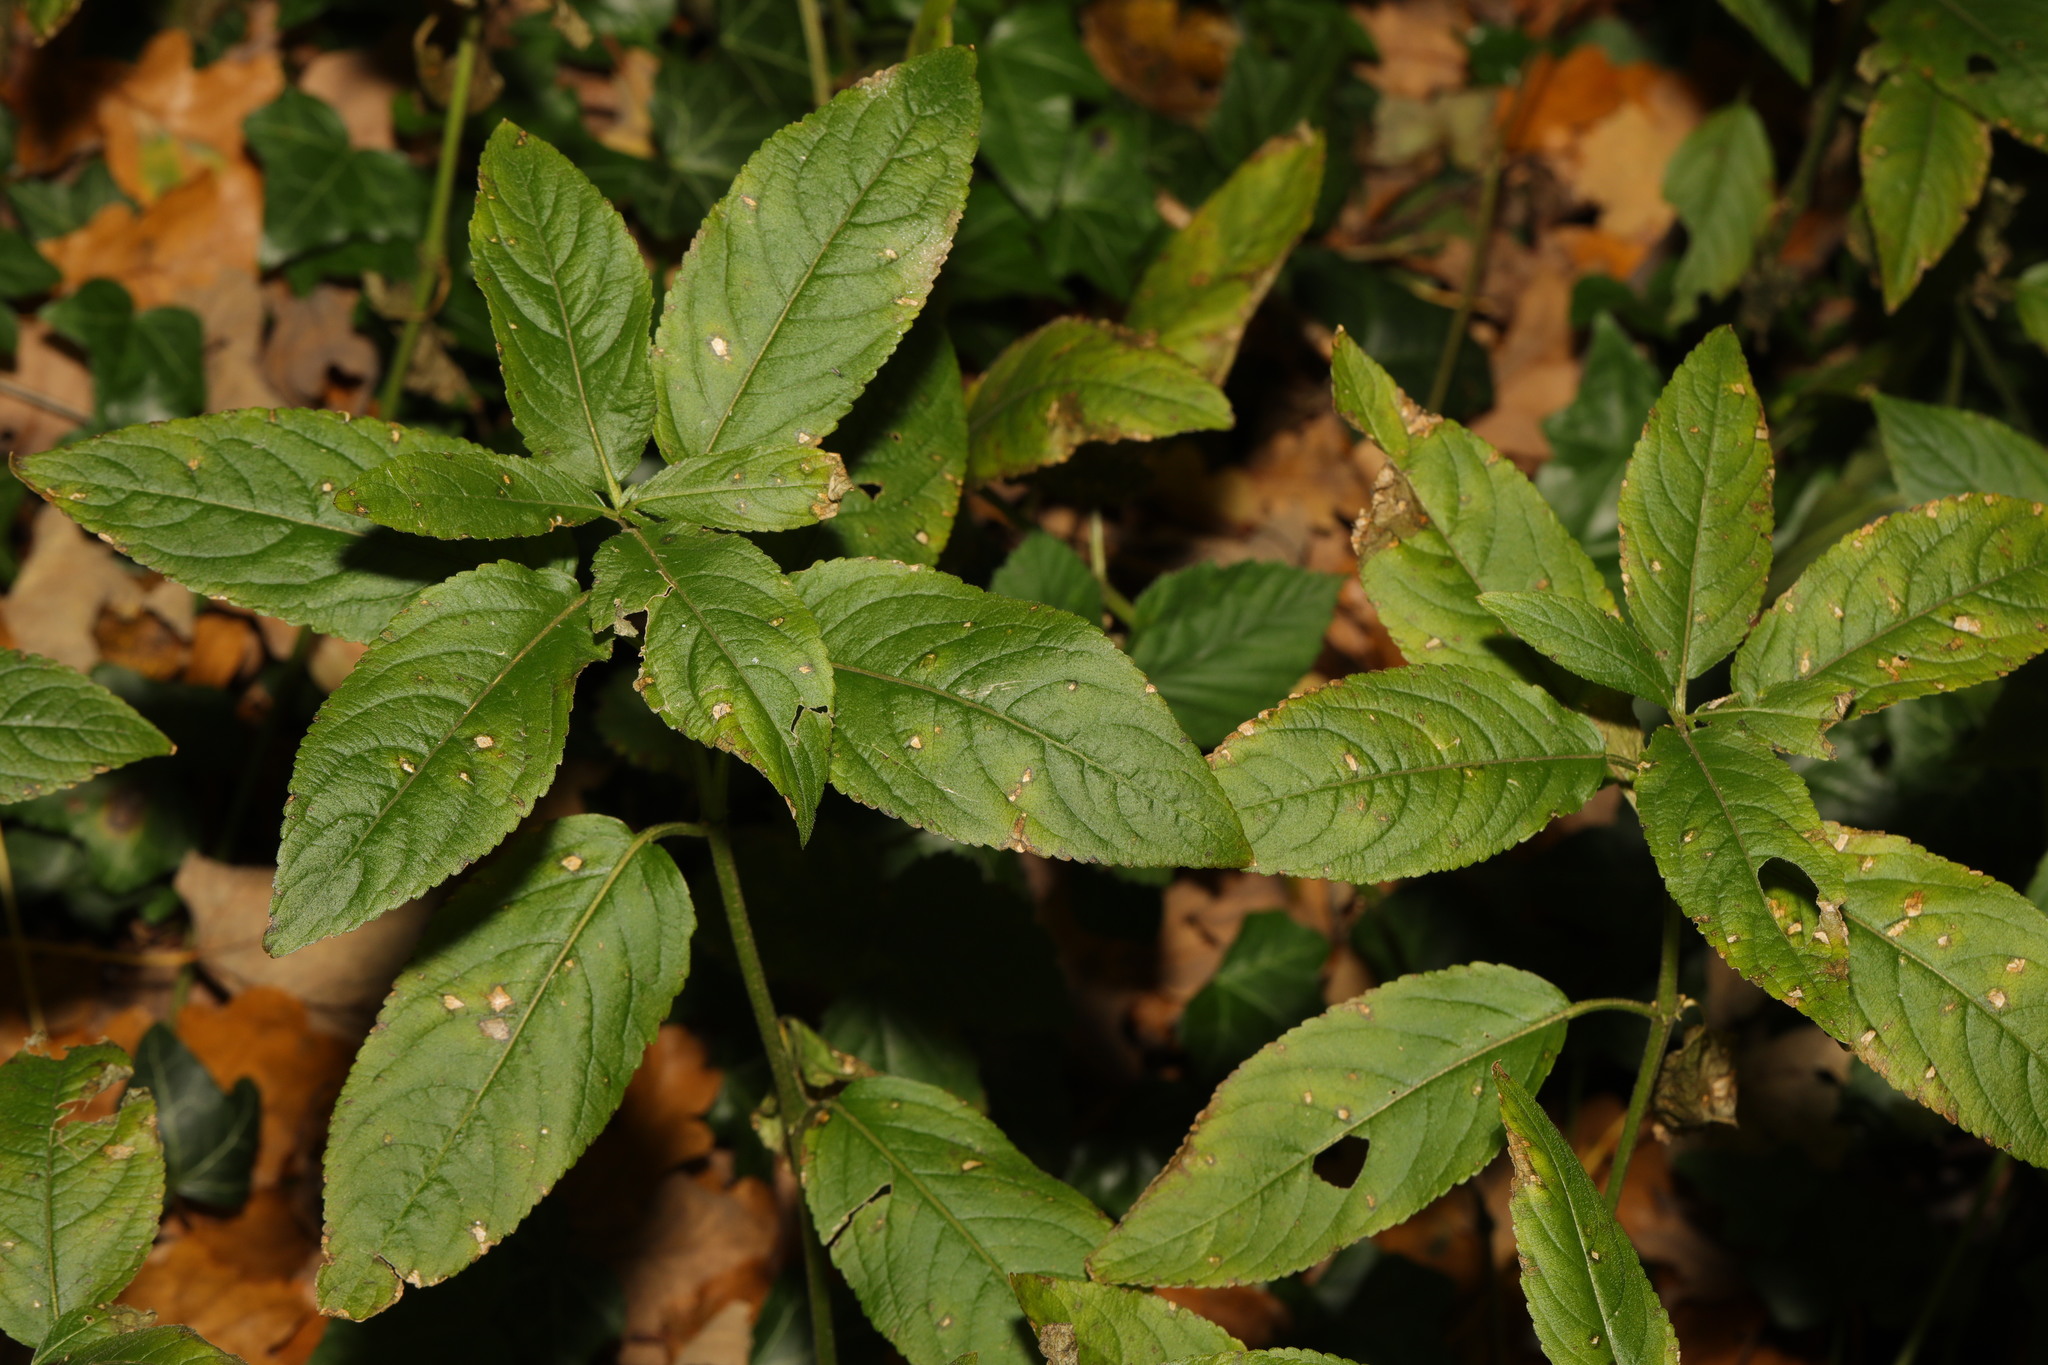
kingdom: Plantae
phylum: Tracheophyta
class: Magnoliopsida
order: Malpighiales
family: Euphorbiaceae
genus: Mercurialis
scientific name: Mercurialis perennis
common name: Dog mercury
